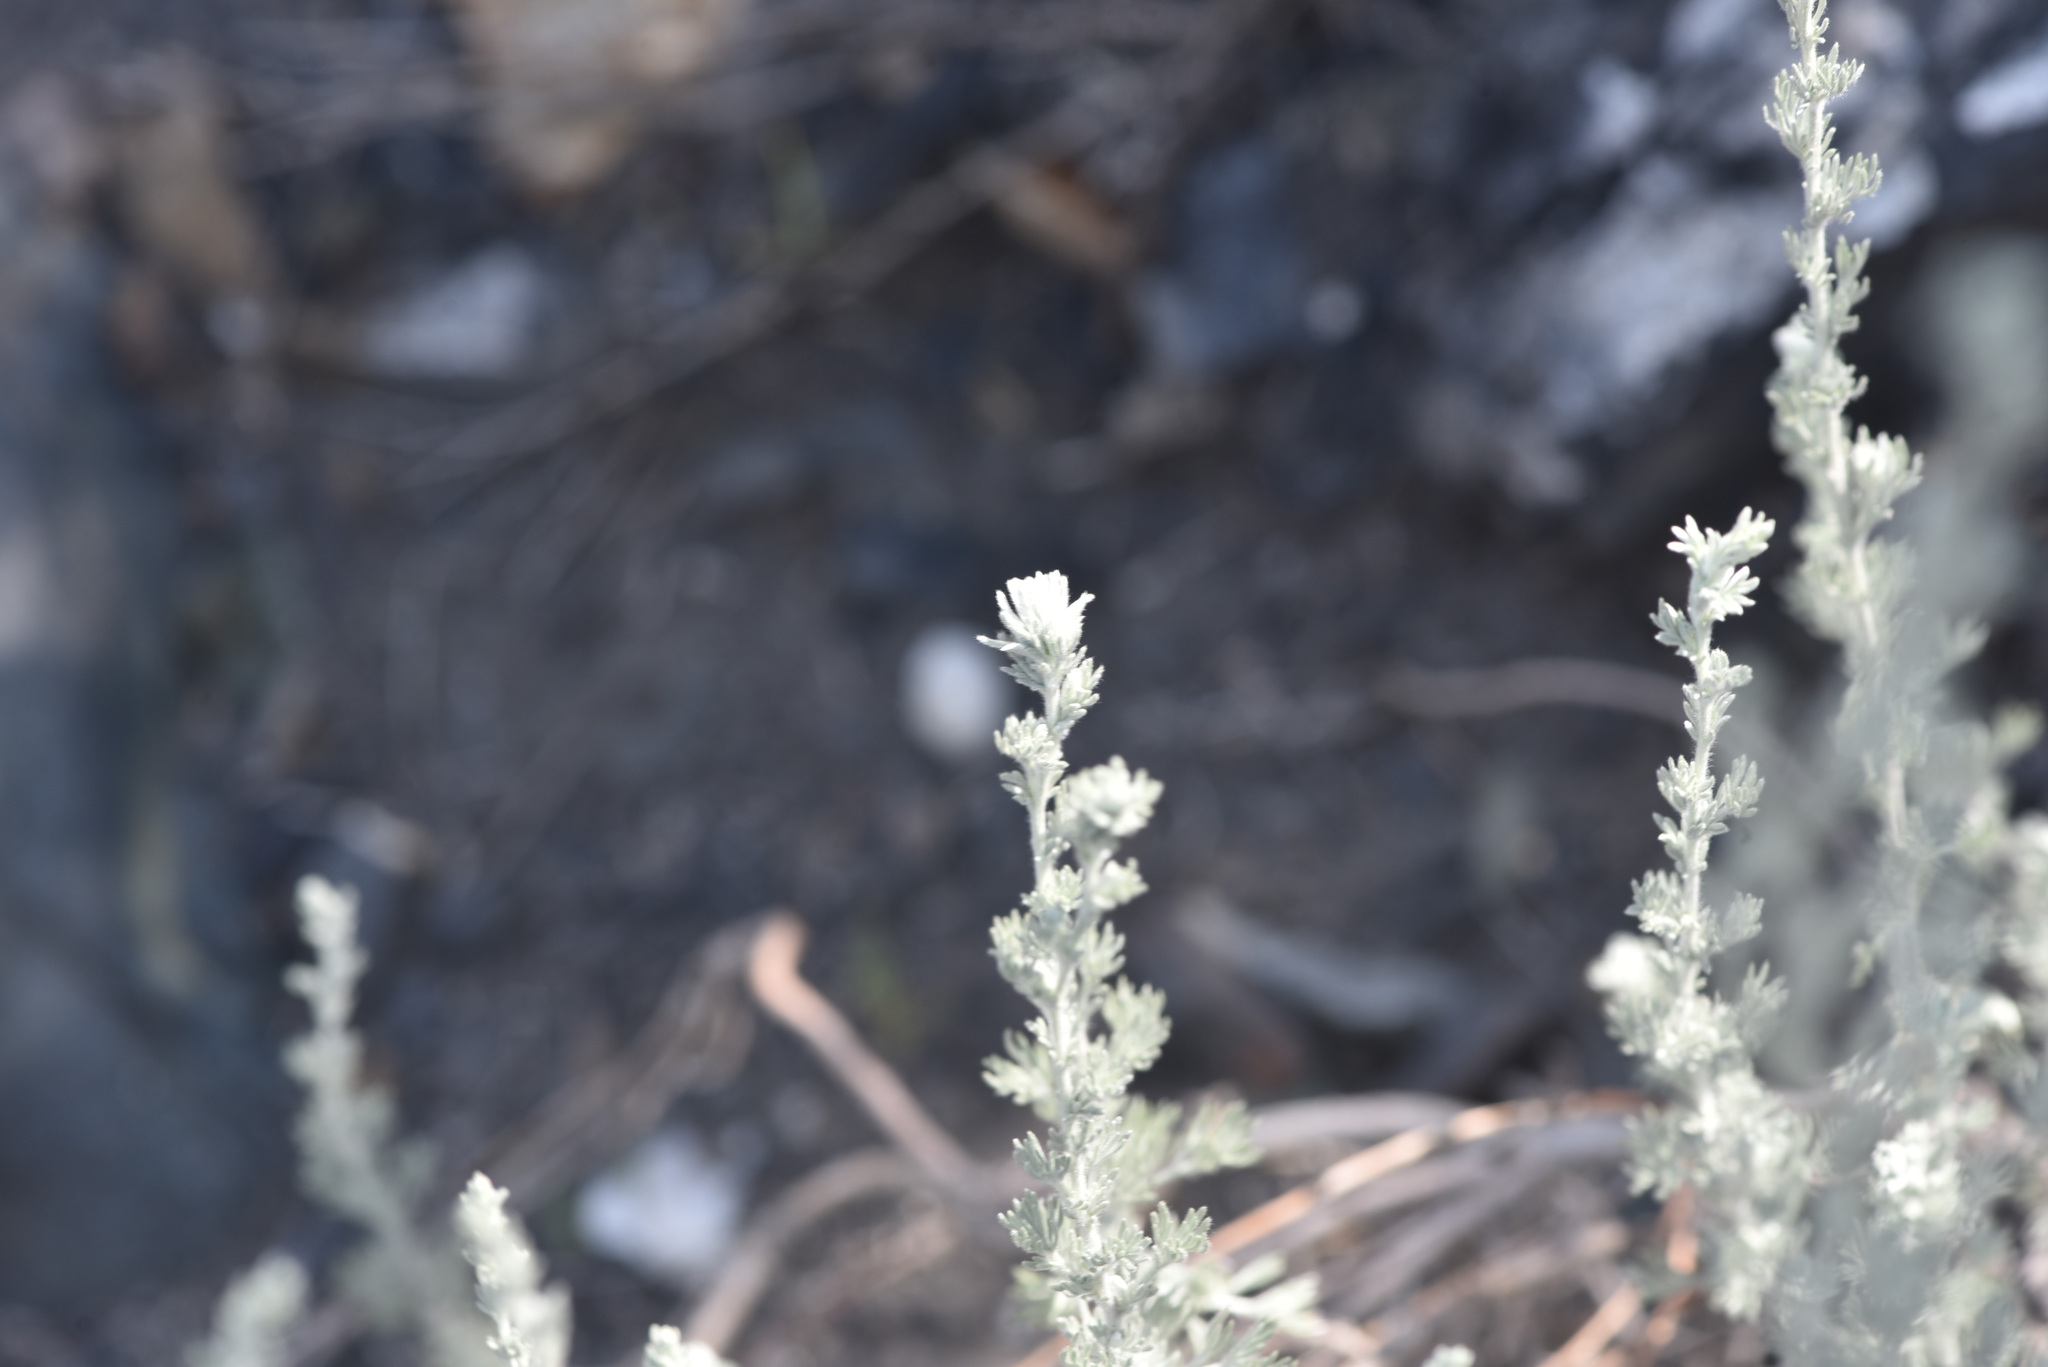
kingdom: Plantae
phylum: Tracheophyta
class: Magnoliopsida
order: Asterales
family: Asteraceae
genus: Artemisia
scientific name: Artemisia frigida
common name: Prairie sagewort
